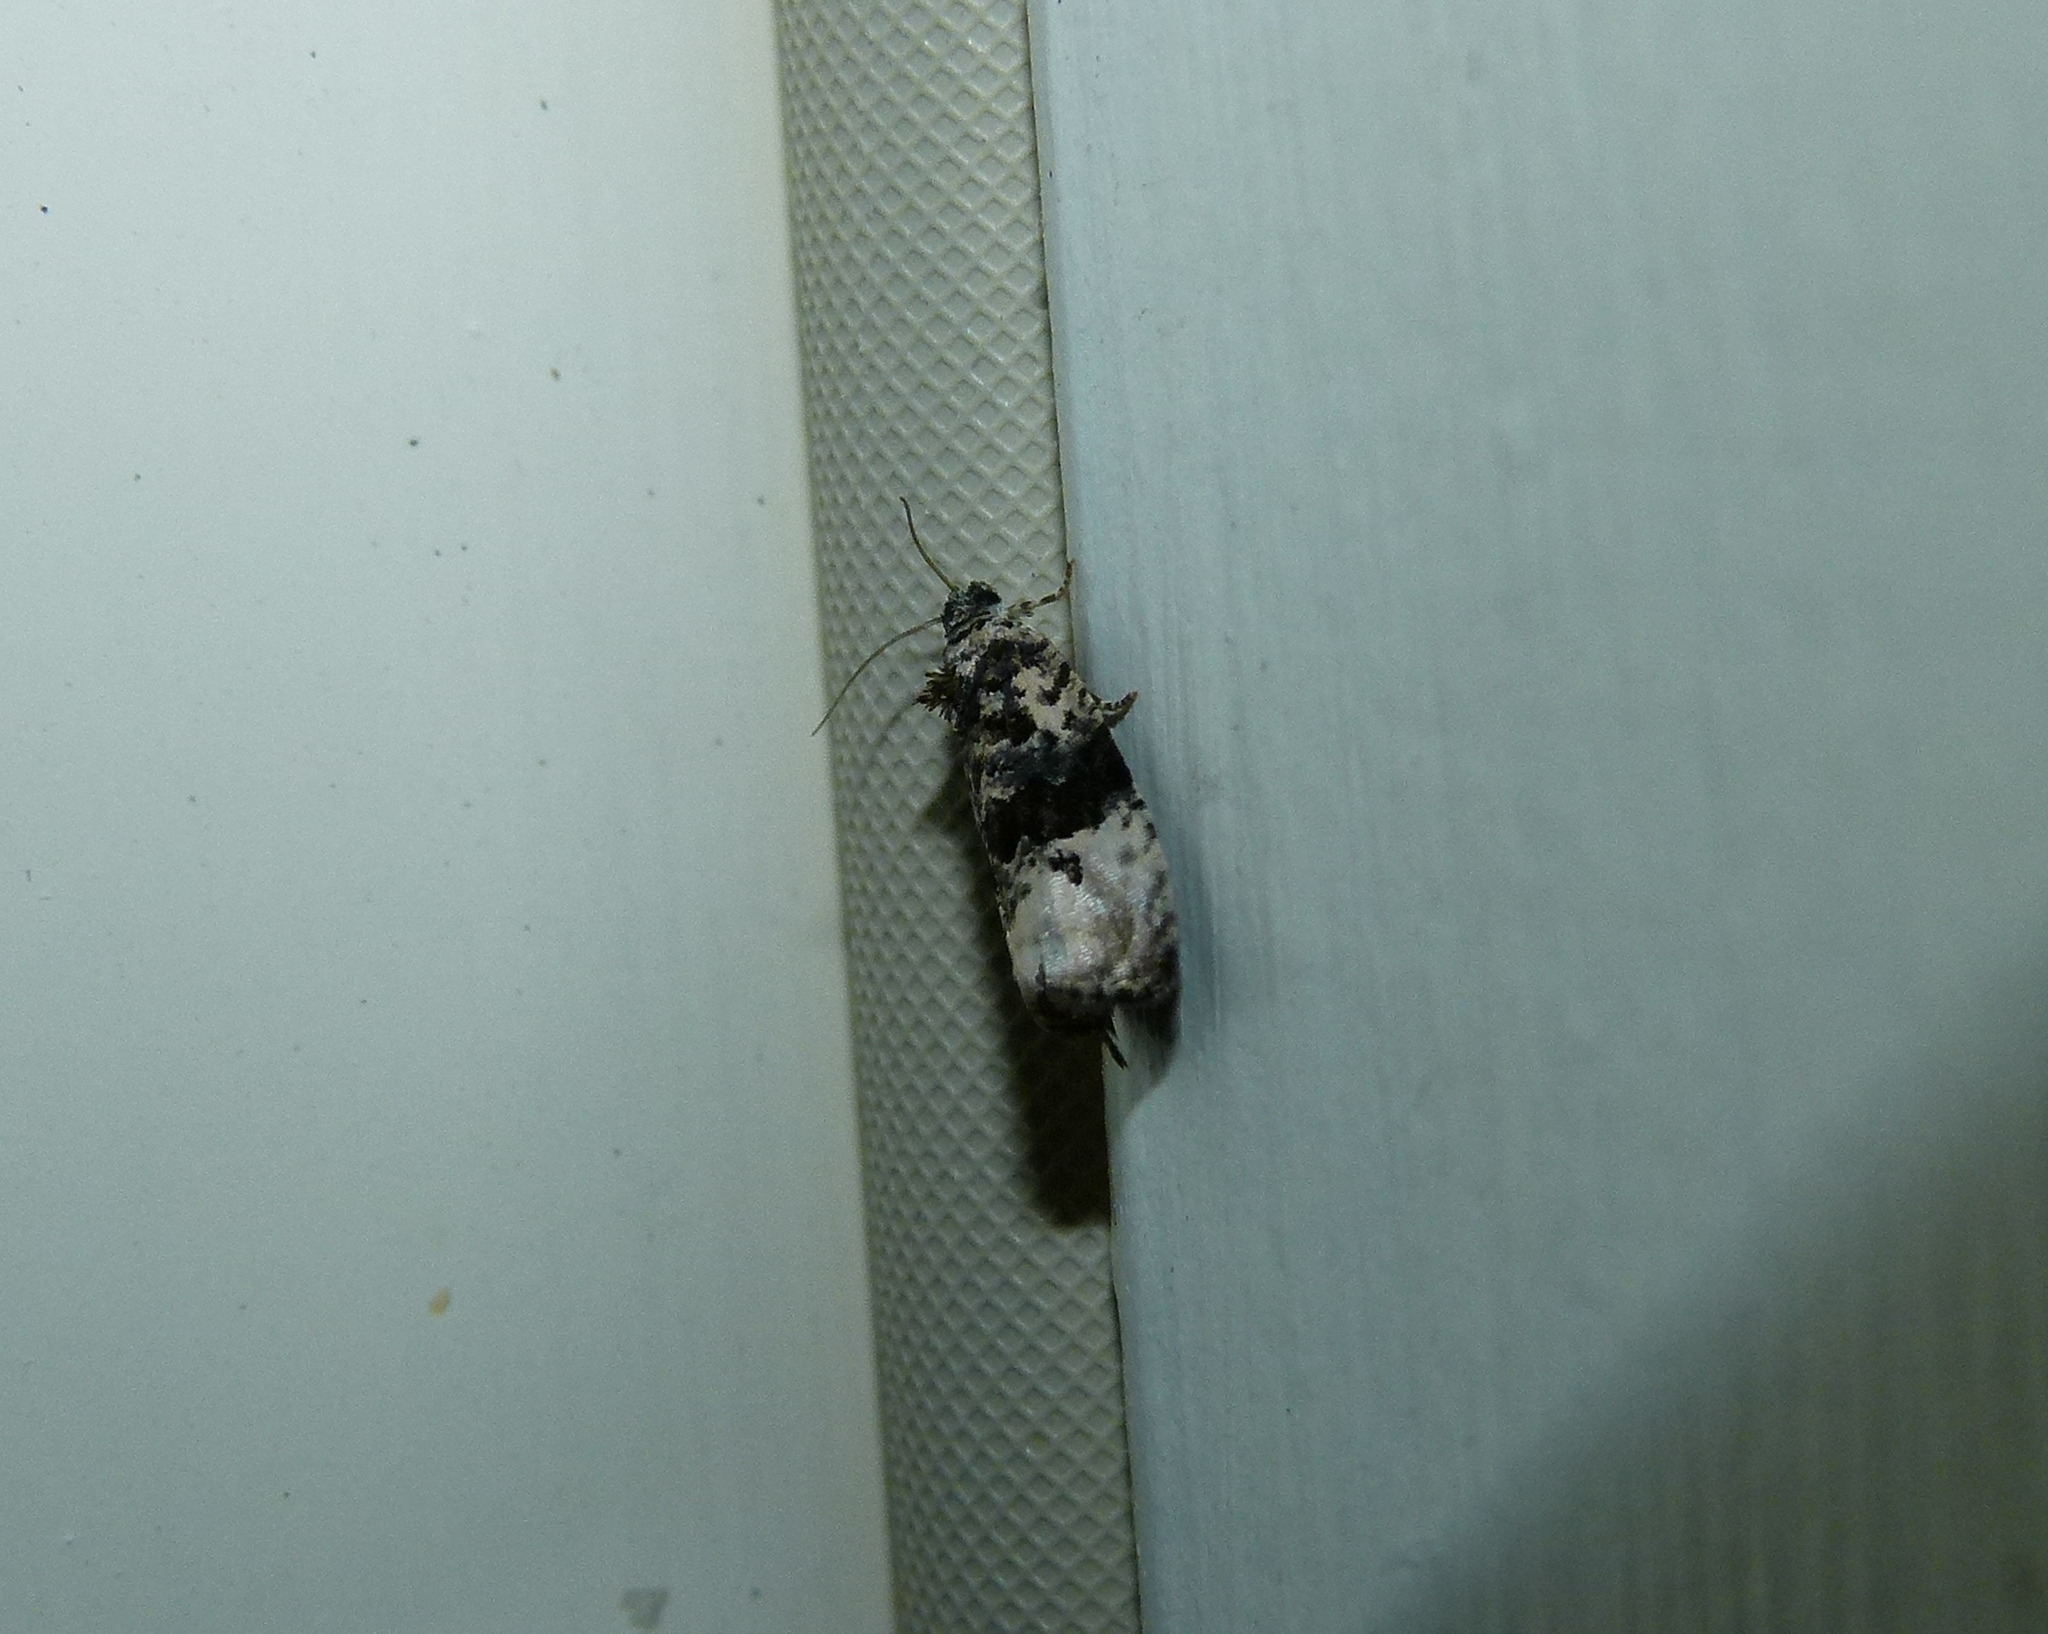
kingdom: Animalia
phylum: Arthropoda
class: Insecta
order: Lepidoptera
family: Tortricidae
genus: Hedya
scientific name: Hedya separatana
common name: Pink-washed leafroller moth
